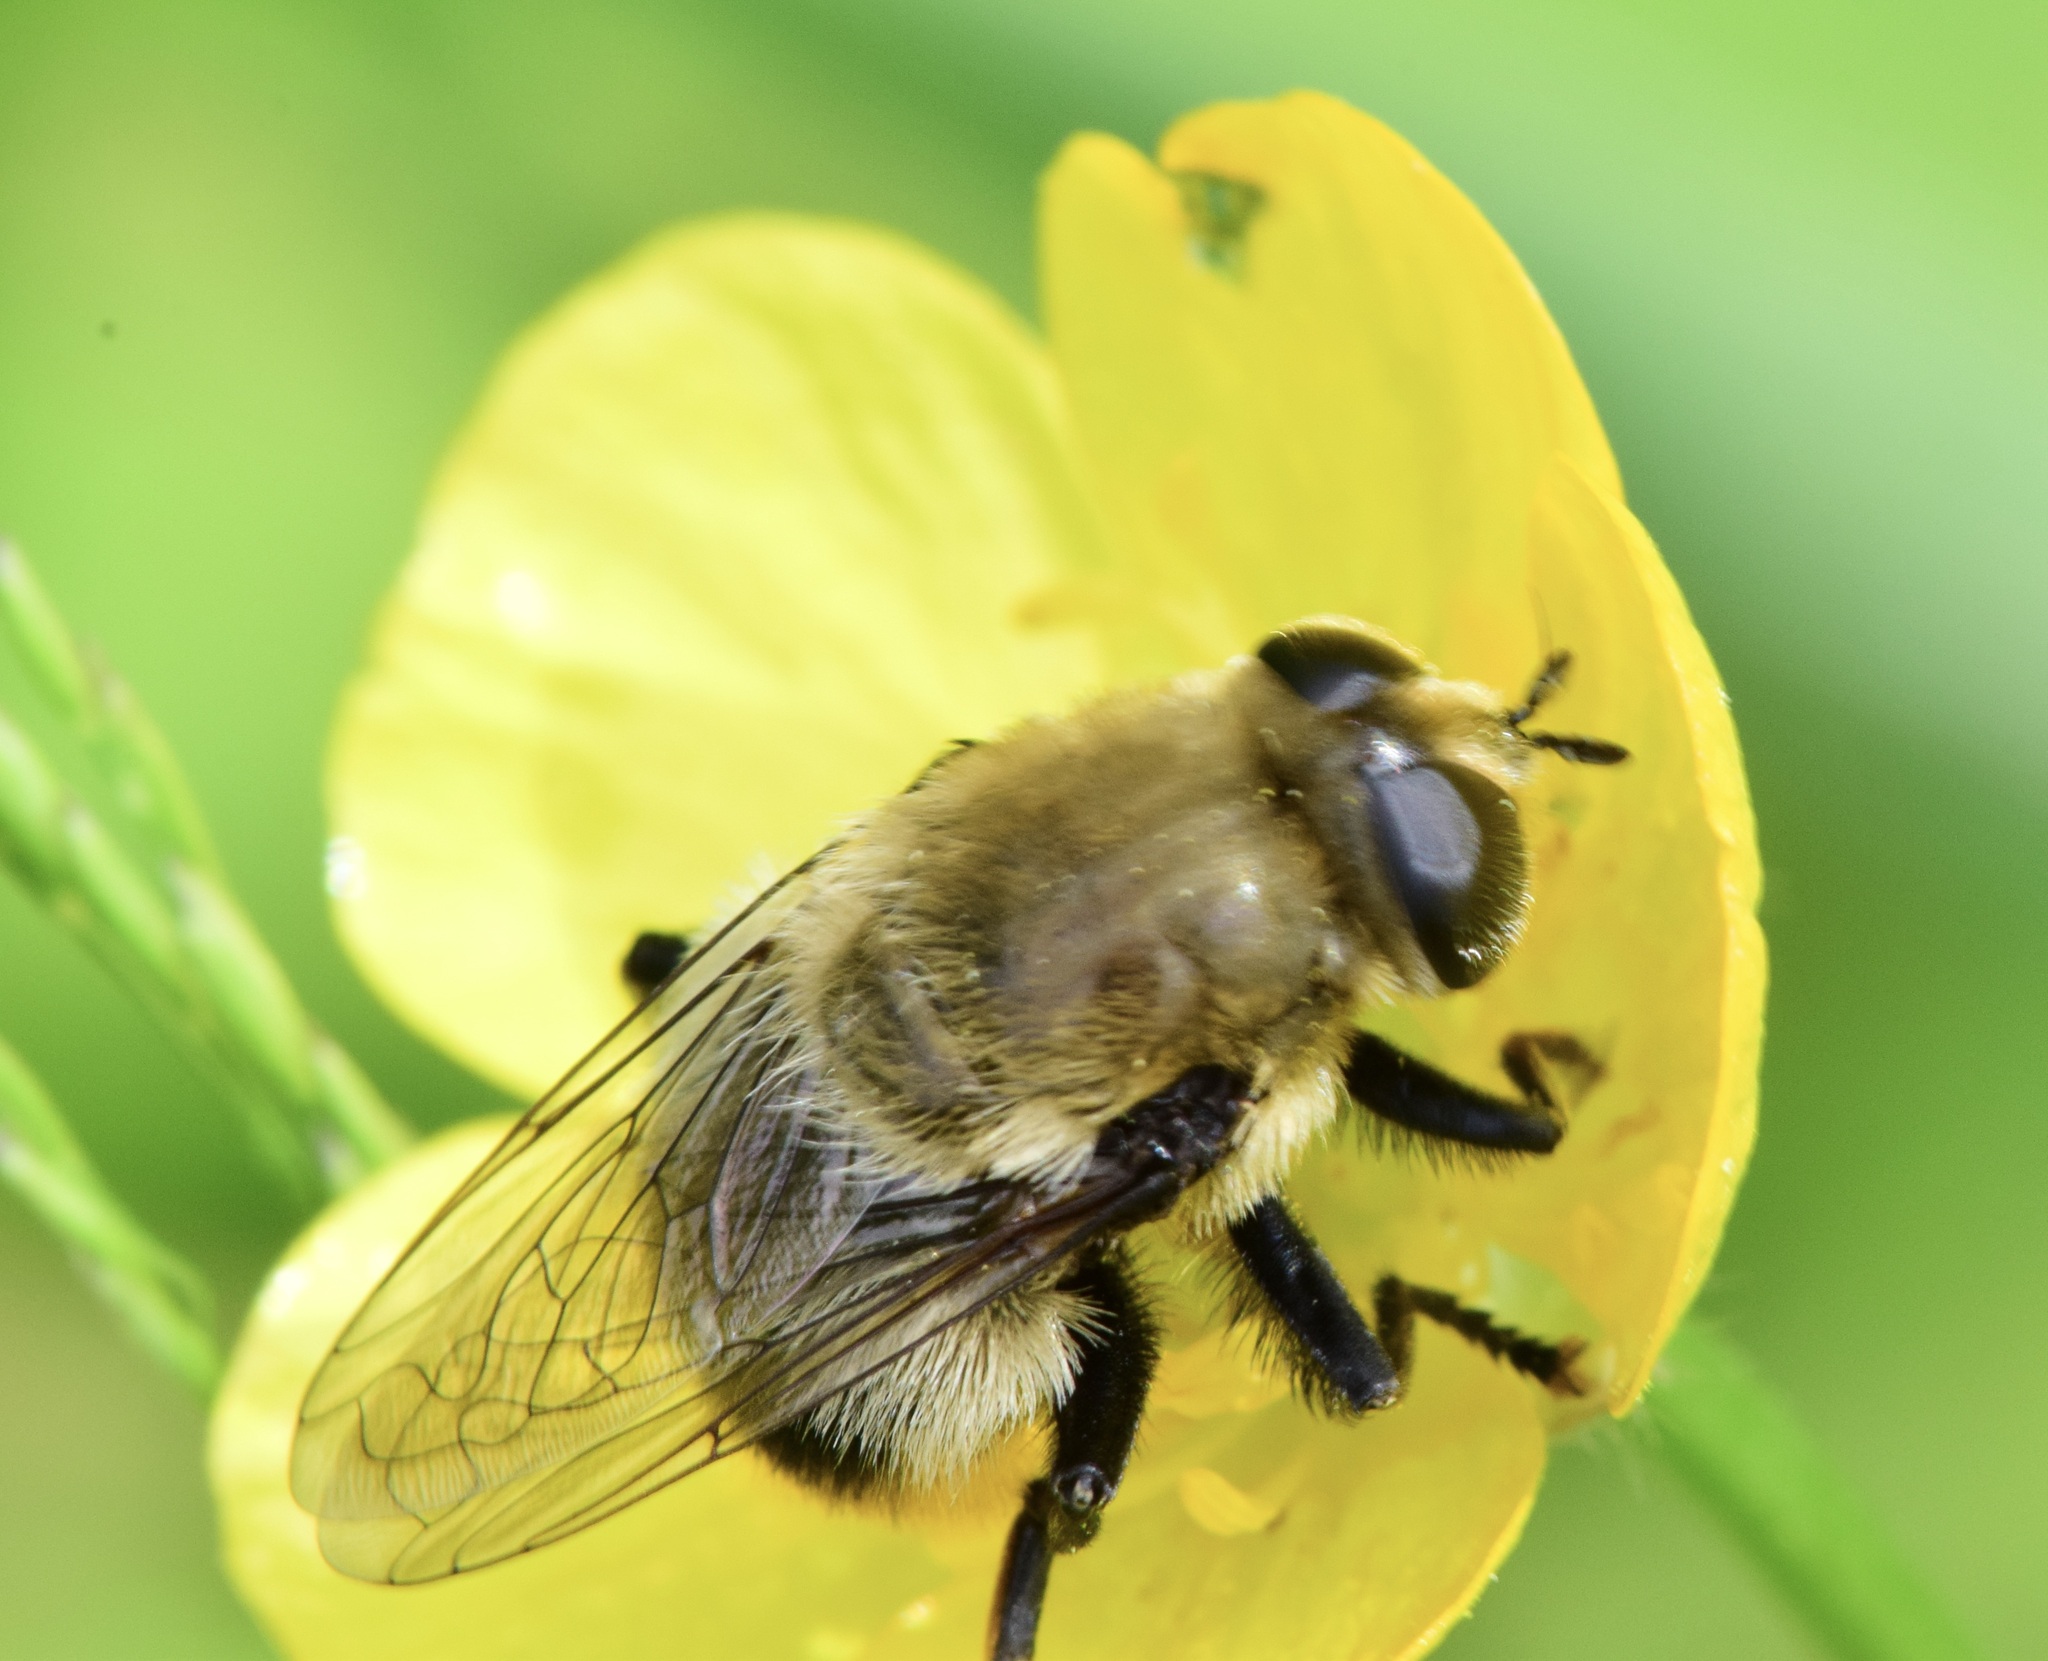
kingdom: Animalia
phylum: Arthropoda
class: Insecta
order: Diptera
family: Syrphidae
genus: Merodon
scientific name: Merodon equestris
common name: Greater bulb-fly
